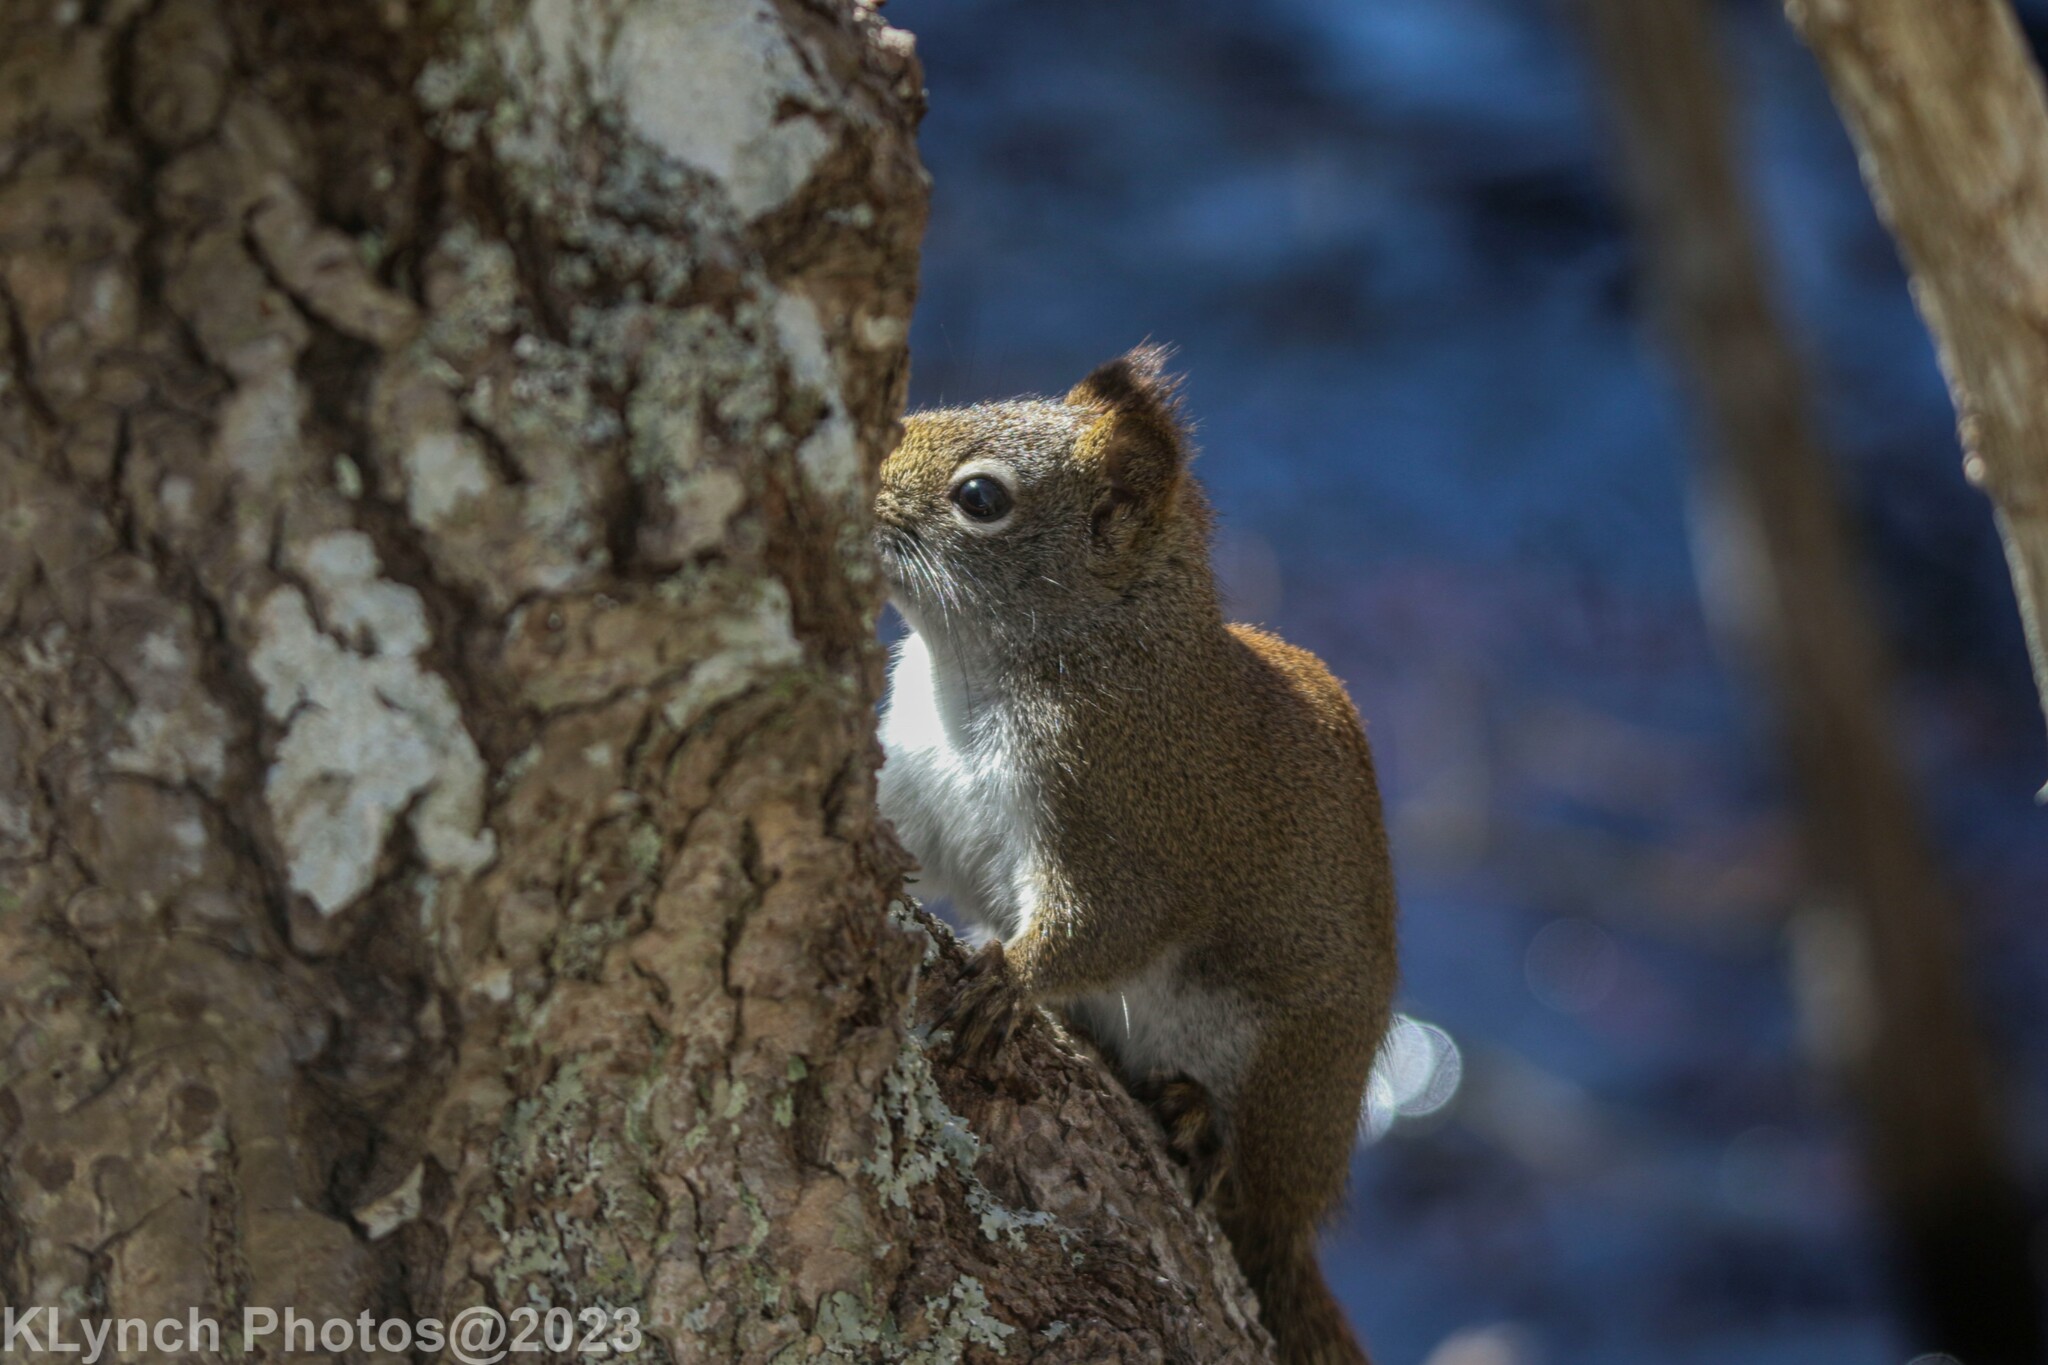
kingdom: Animalia
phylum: Chordata
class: Mammalia
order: Rodentia
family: Sciuridae
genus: Tamiasciurus
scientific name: Tamiasciurus hudsonicus
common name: Red squirrel
